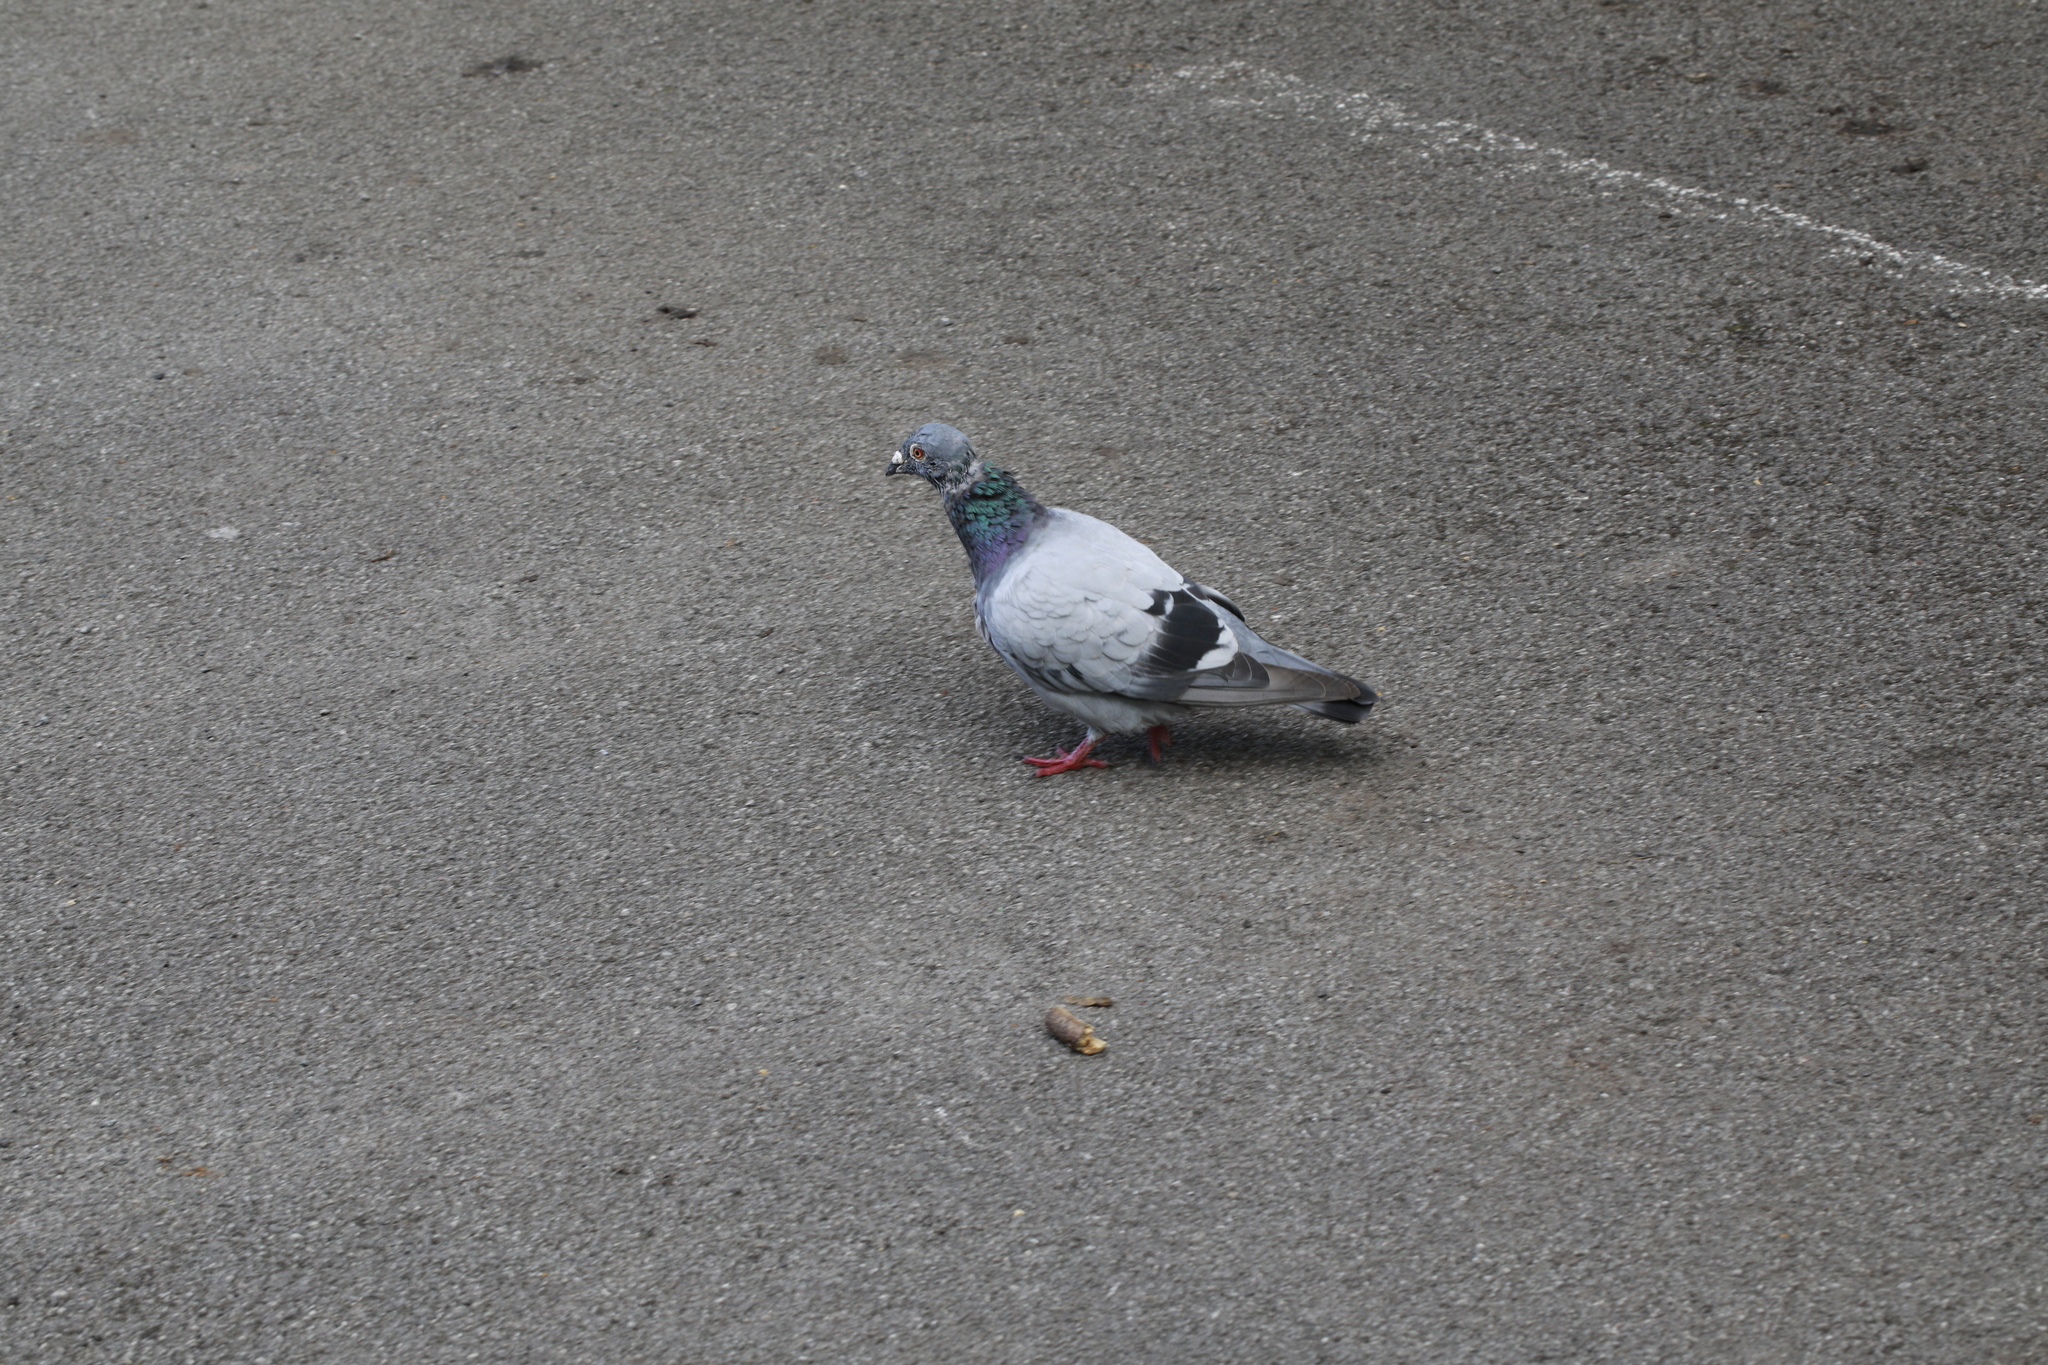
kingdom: Animalia
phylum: Chordata
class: Aves
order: Columbiformes
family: Columbidae
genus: Columba
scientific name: Columba livia
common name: Rock pigeon
